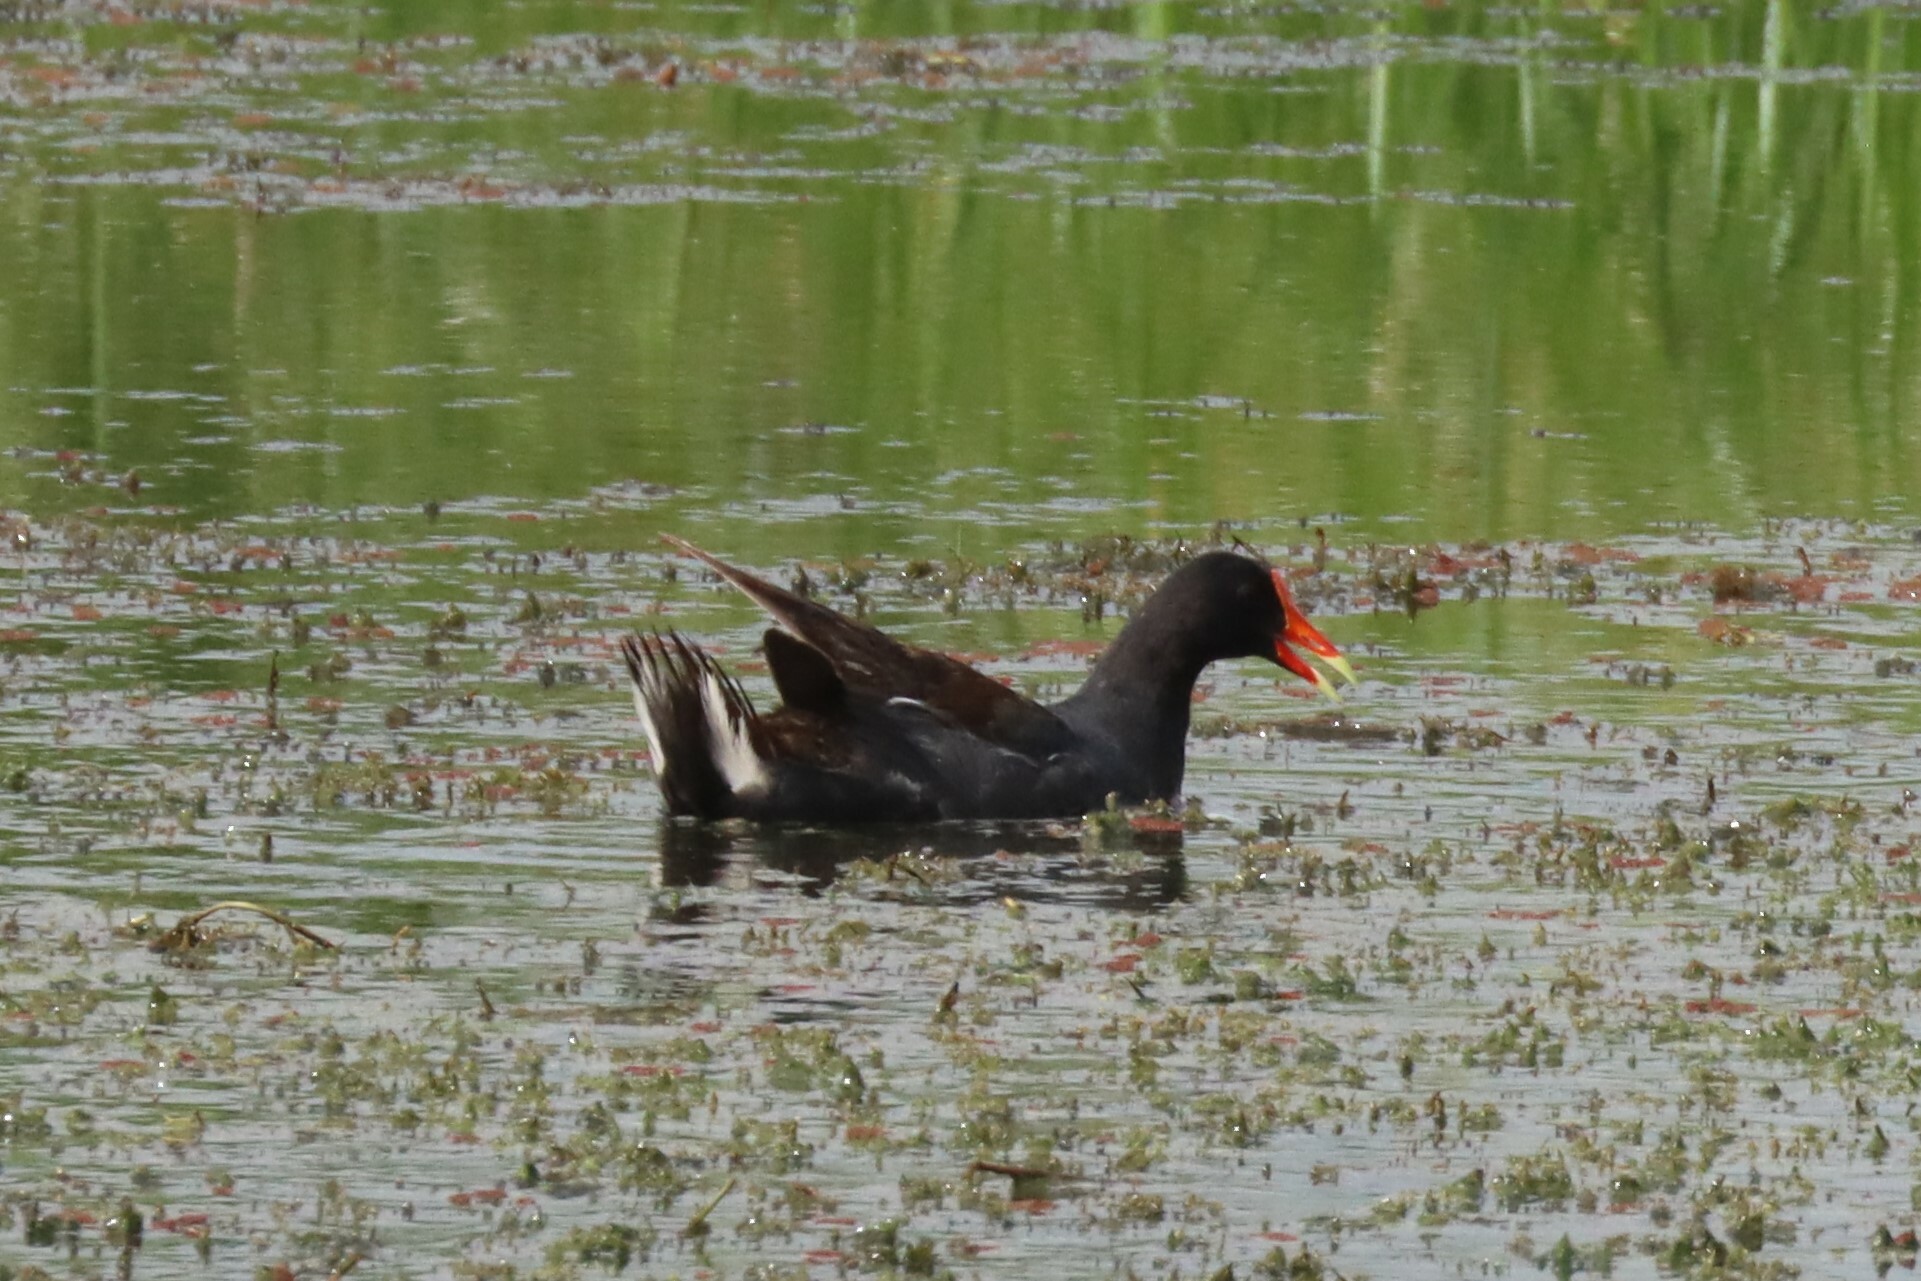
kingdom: Animalia
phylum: Chordata
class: Aves
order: Gruiformes
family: Rallidae
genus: Gallinula
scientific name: Gallinula chloropus
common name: Common moorhen
